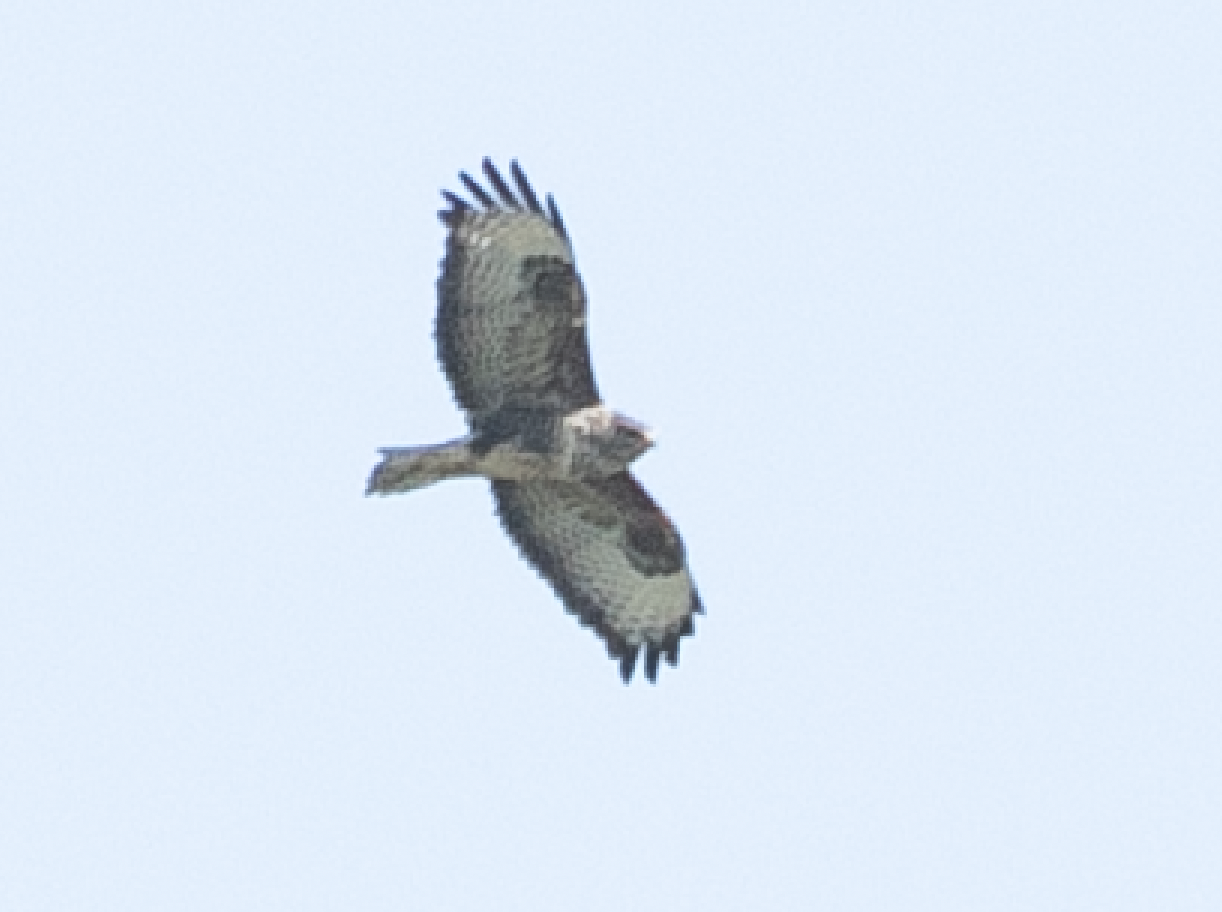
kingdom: Animalia
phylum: Chordata
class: Aves
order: Accipitriformes
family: Accipitridae
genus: Buteo
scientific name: Buteo buteo
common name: Common buzzard
